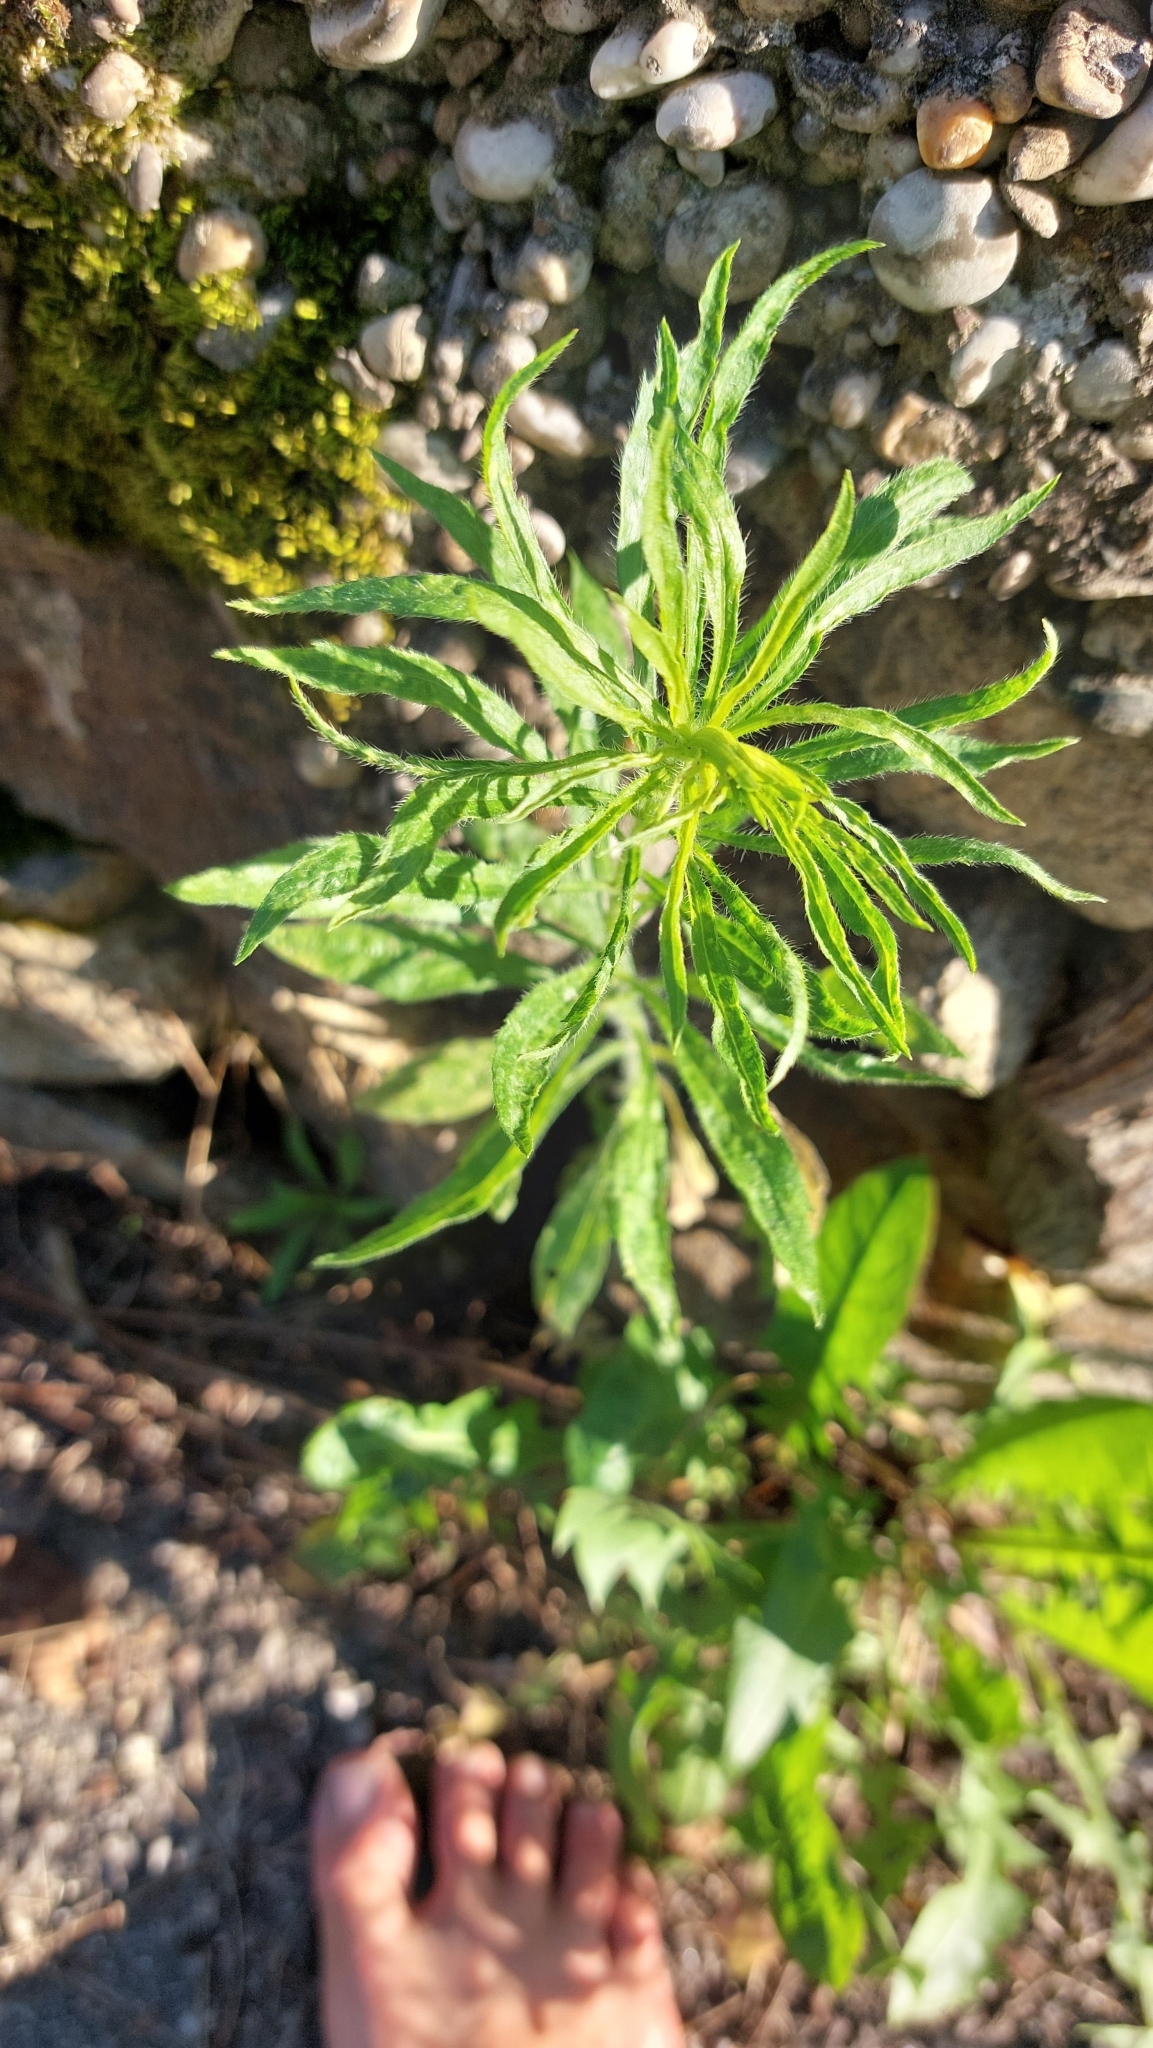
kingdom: Plantae
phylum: Tracheophyta
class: Magnoliopsida
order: Asterales
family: Asteraceae
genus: Erigeron
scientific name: Erigeron canadensis
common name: Canadian fleabane
